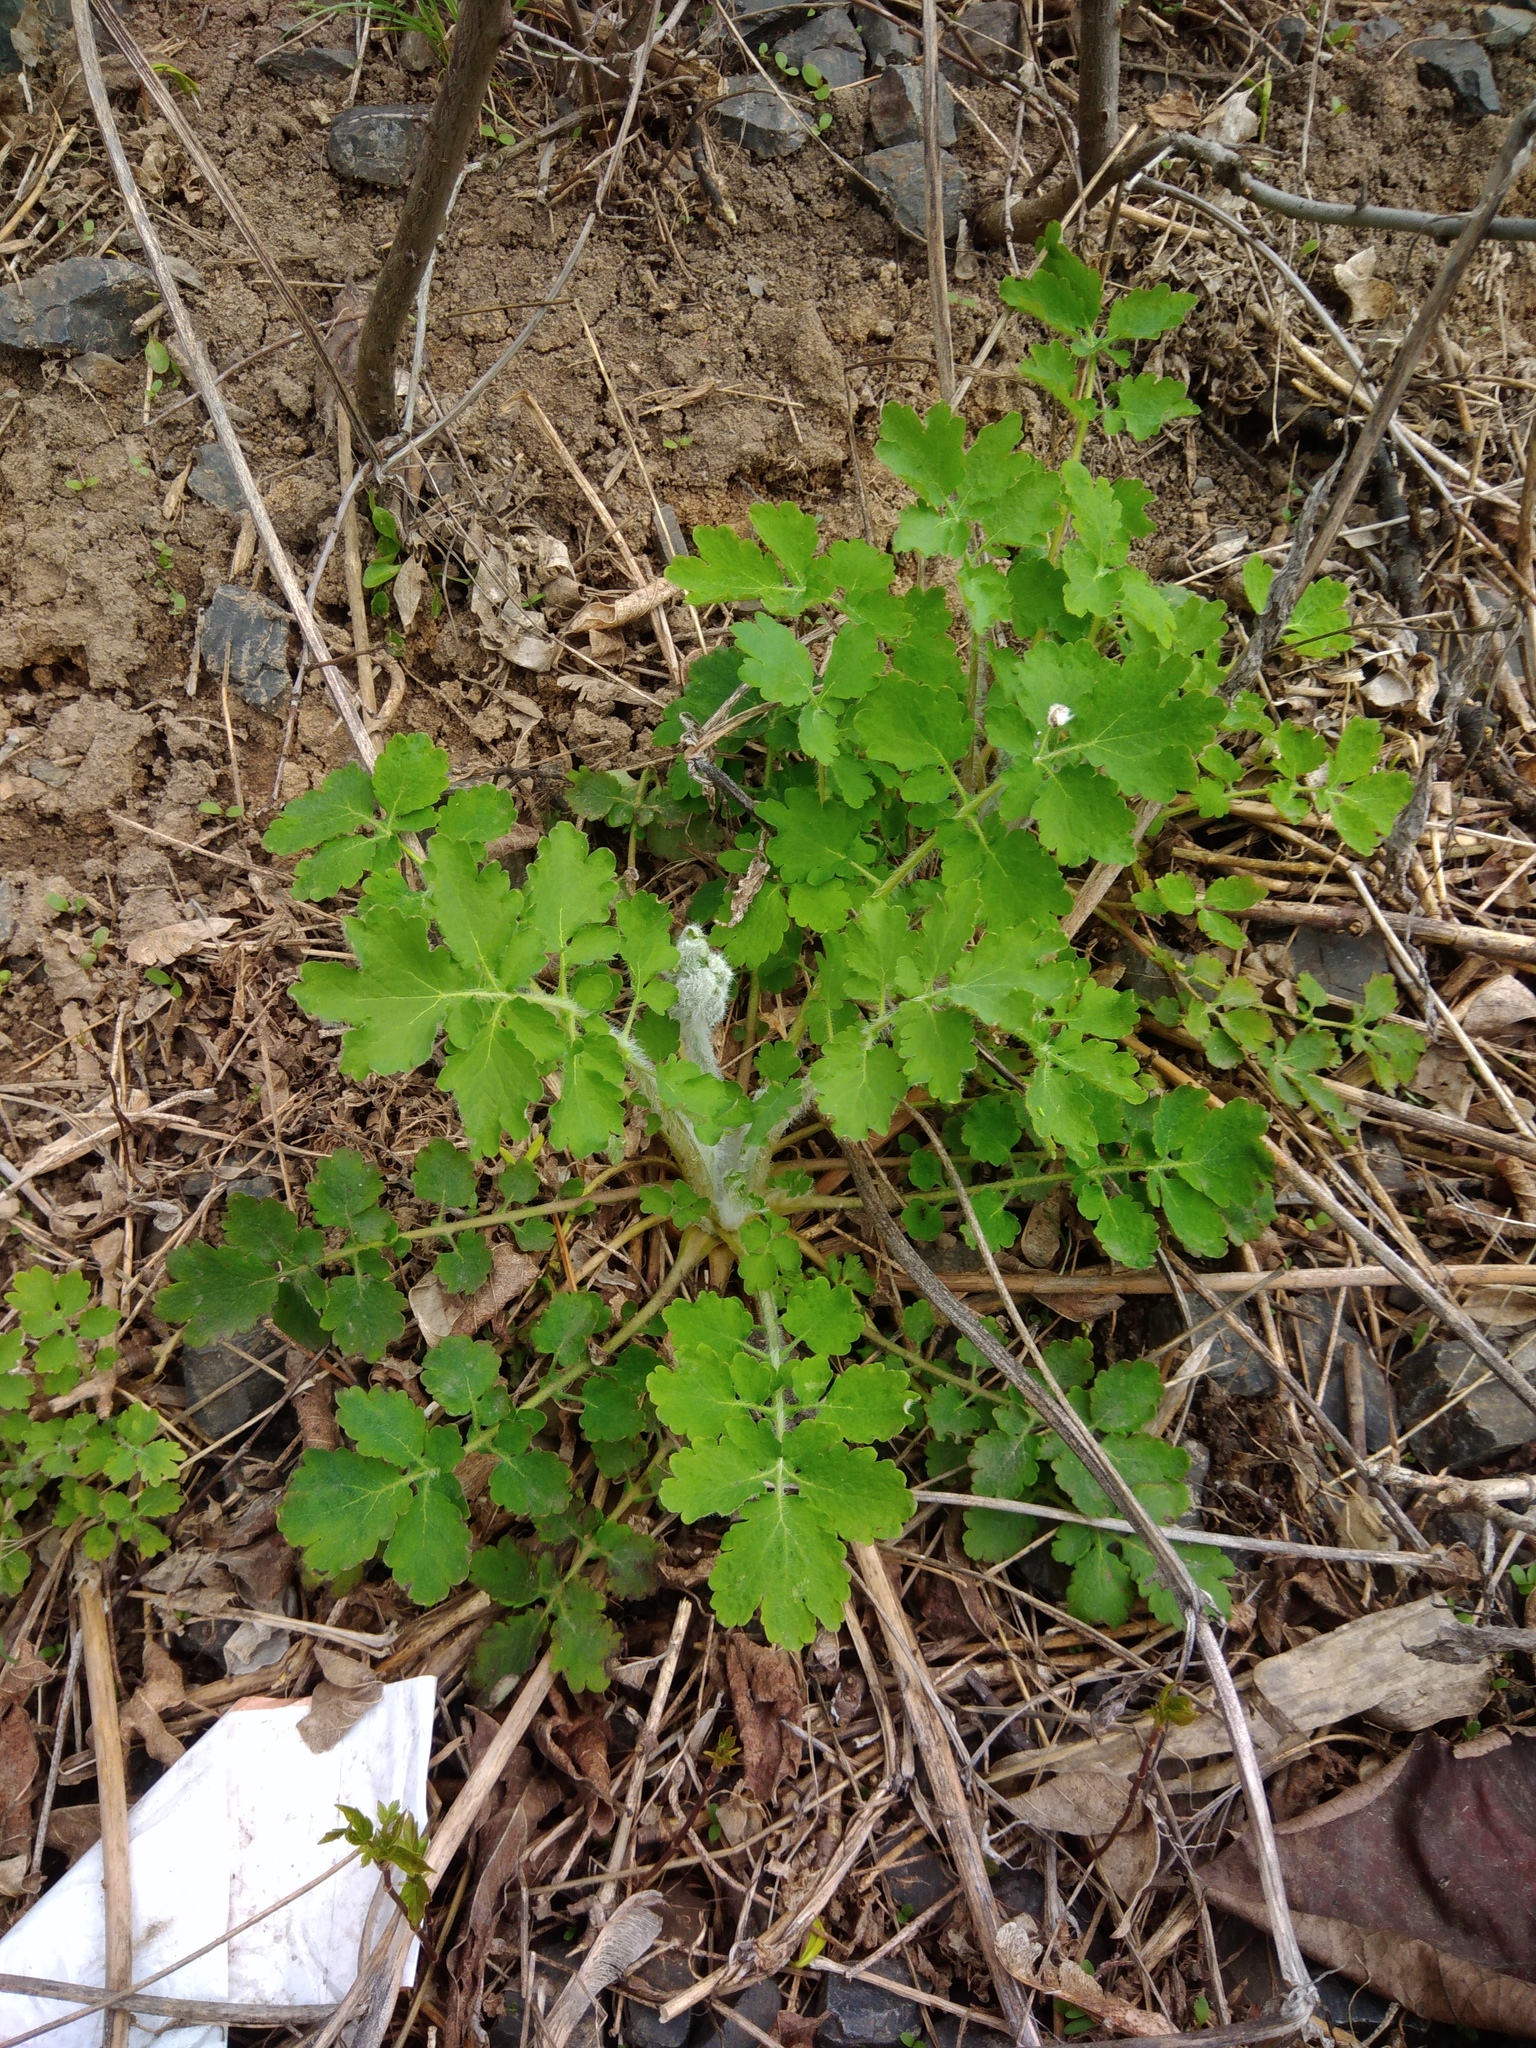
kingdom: Plantae
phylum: Tracheophyta
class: Magnoliopsida
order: Ranunculales
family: Papaveraceae
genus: Chelidonium
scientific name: Chelidonium majus
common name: Greater celandine
